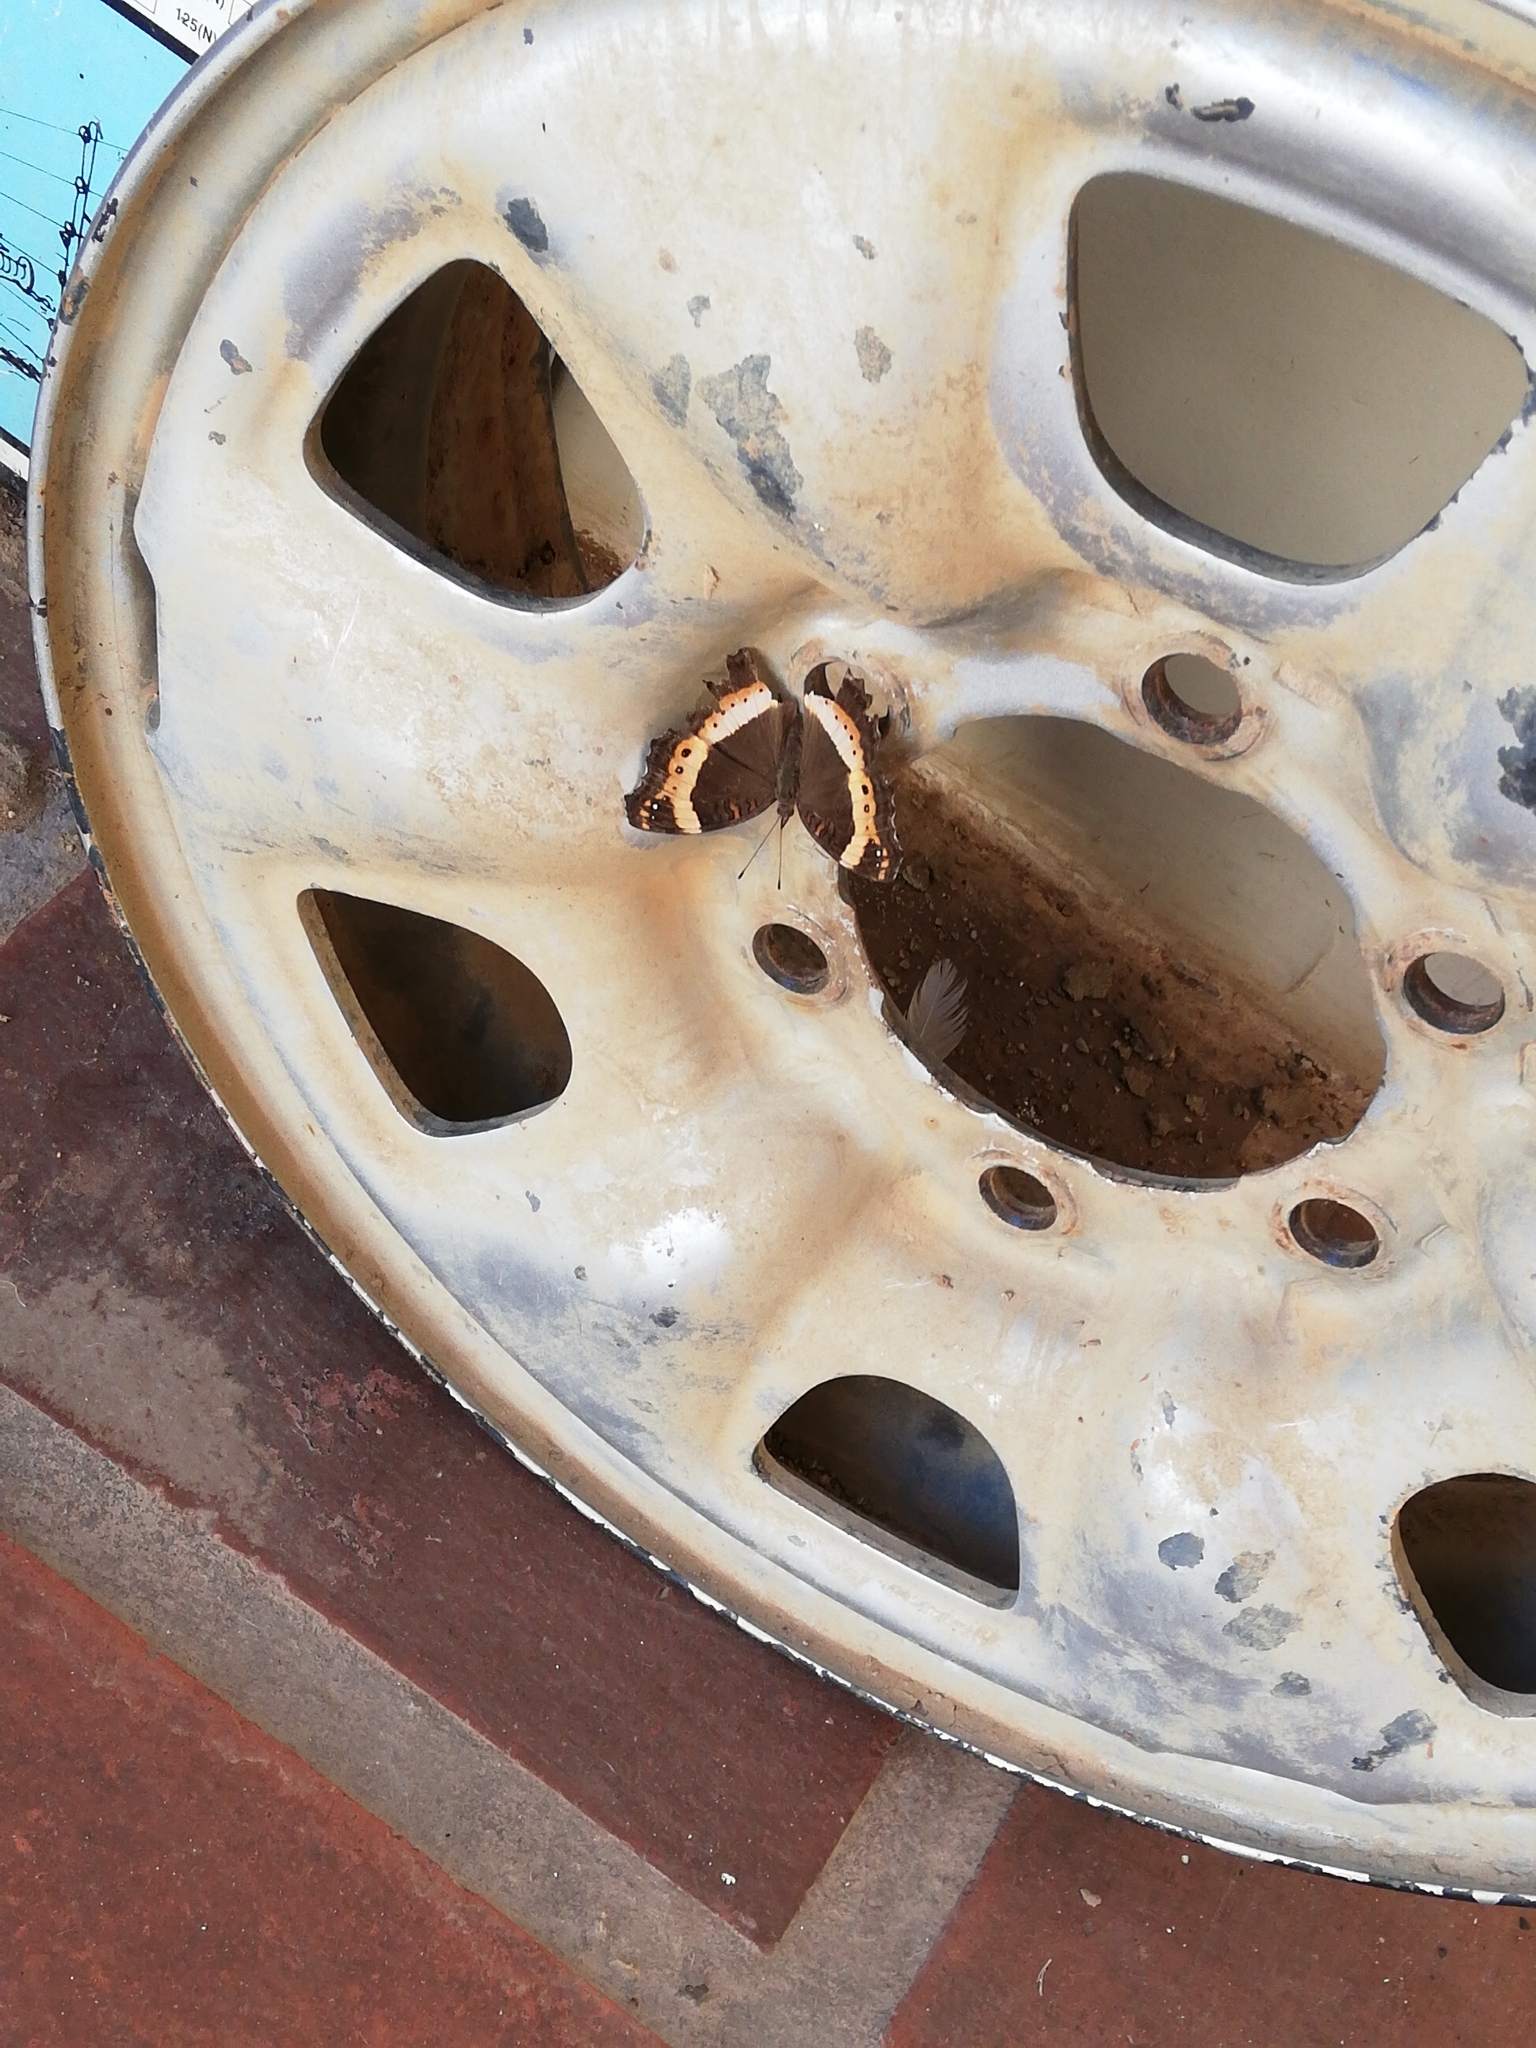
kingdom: Animalia
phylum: Arthropoda
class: Insecta
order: Lepidoptera
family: Nymphalidae
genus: Junonia
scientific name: Junonia archesia
